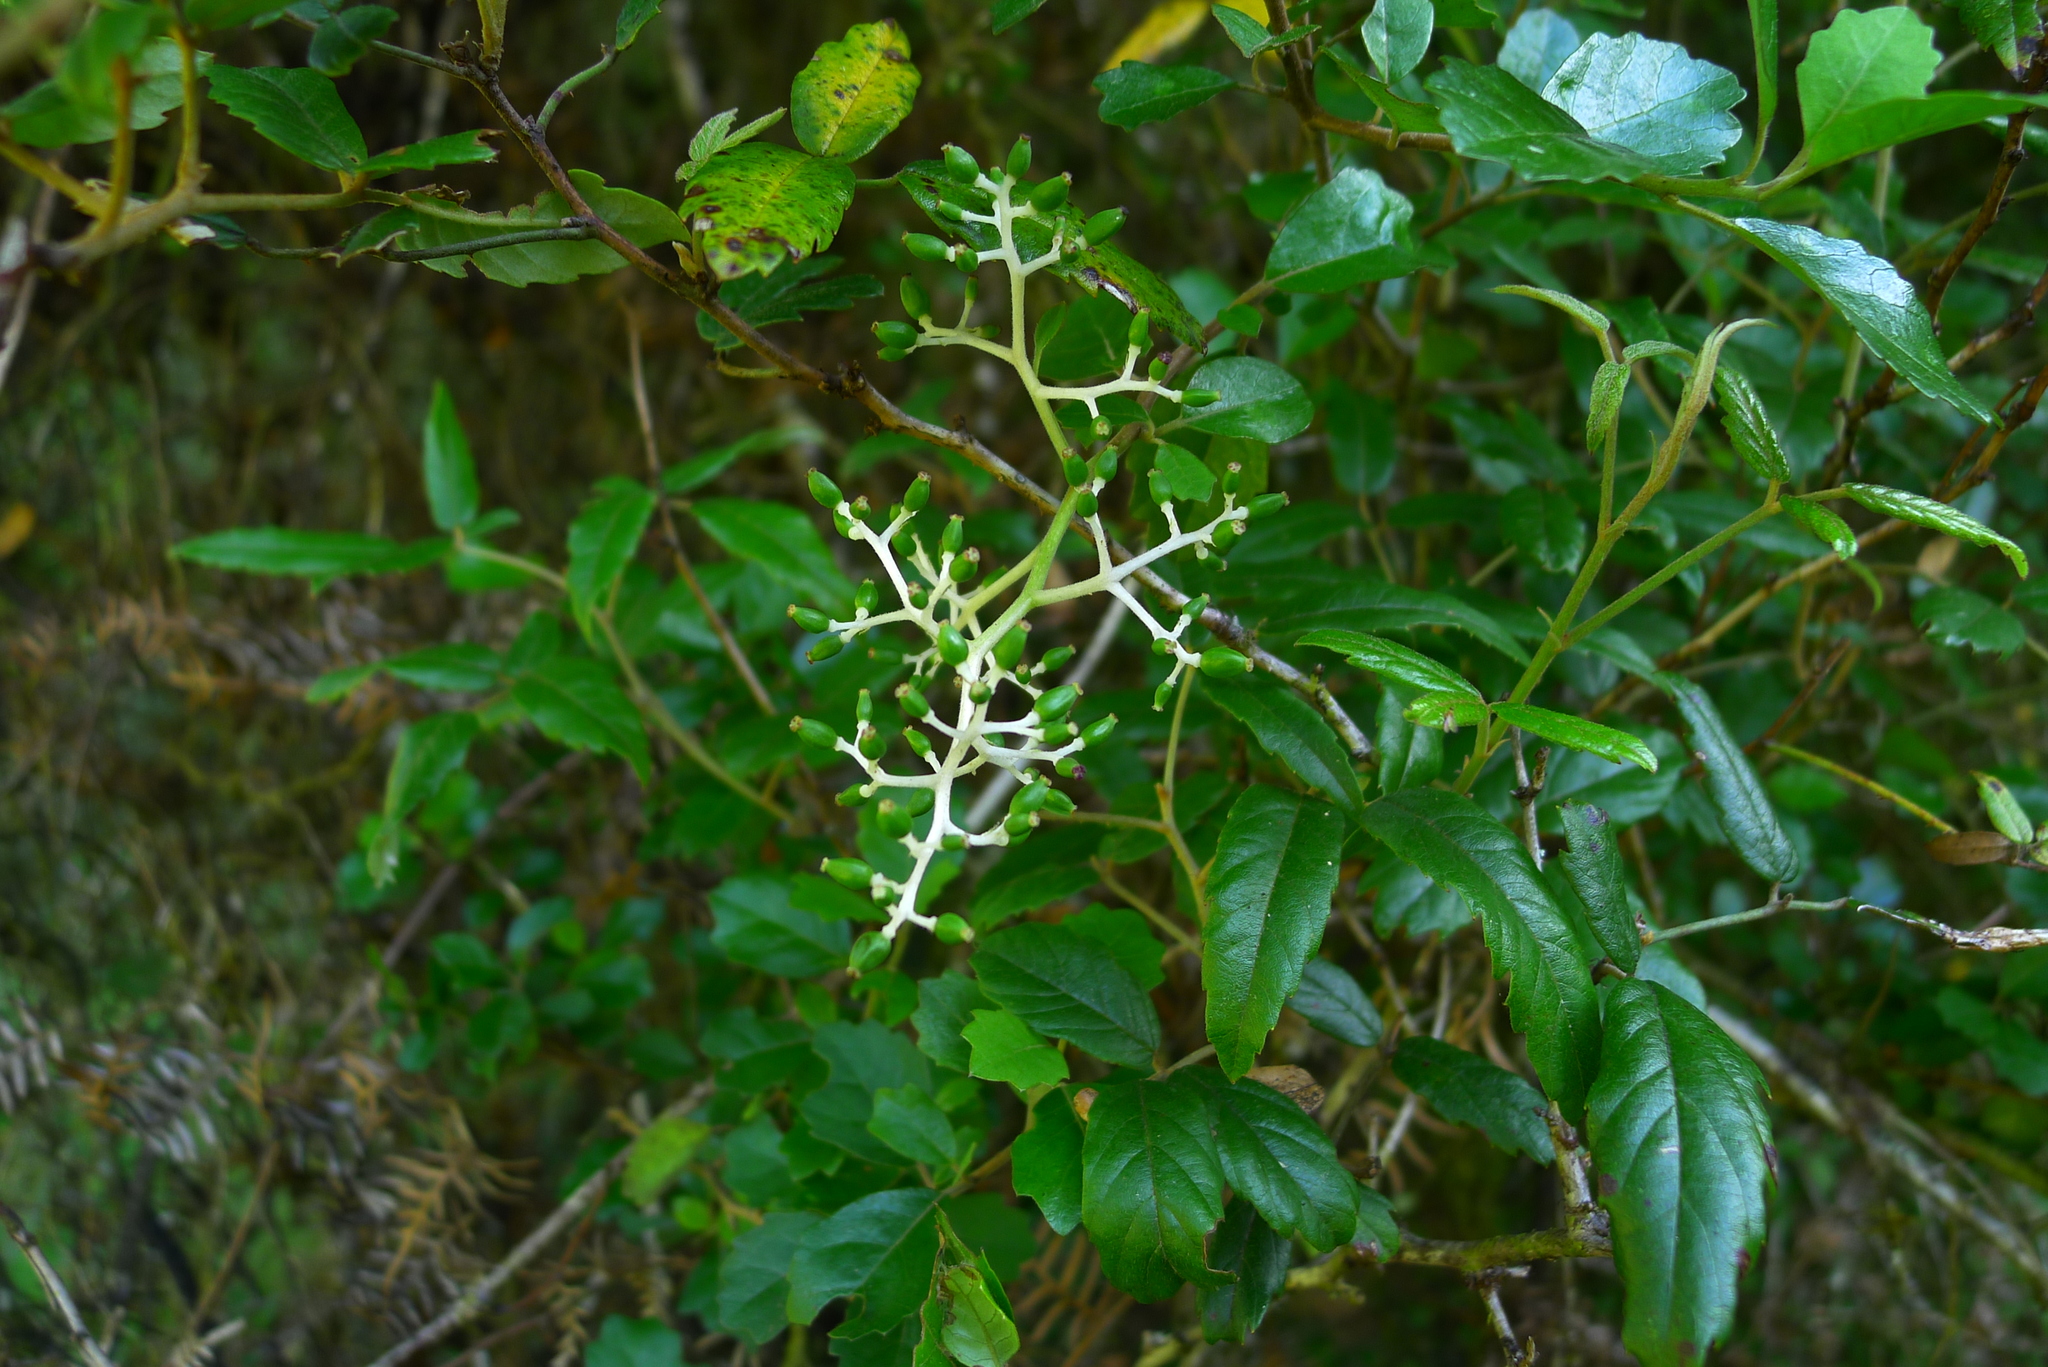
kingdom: Plantae
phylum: Tracheophyta
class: Magnoliopsida
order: Apiales
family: Pennantiaceae
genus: Pennantia
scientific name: Pennantia corymbosa
